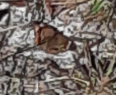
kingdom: Animalia
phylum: Arthropoda
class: Insecta
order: Lepidoptera
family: Nymphalidae
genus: Junonia
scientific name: Junonia coenia
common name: Common buckeye
